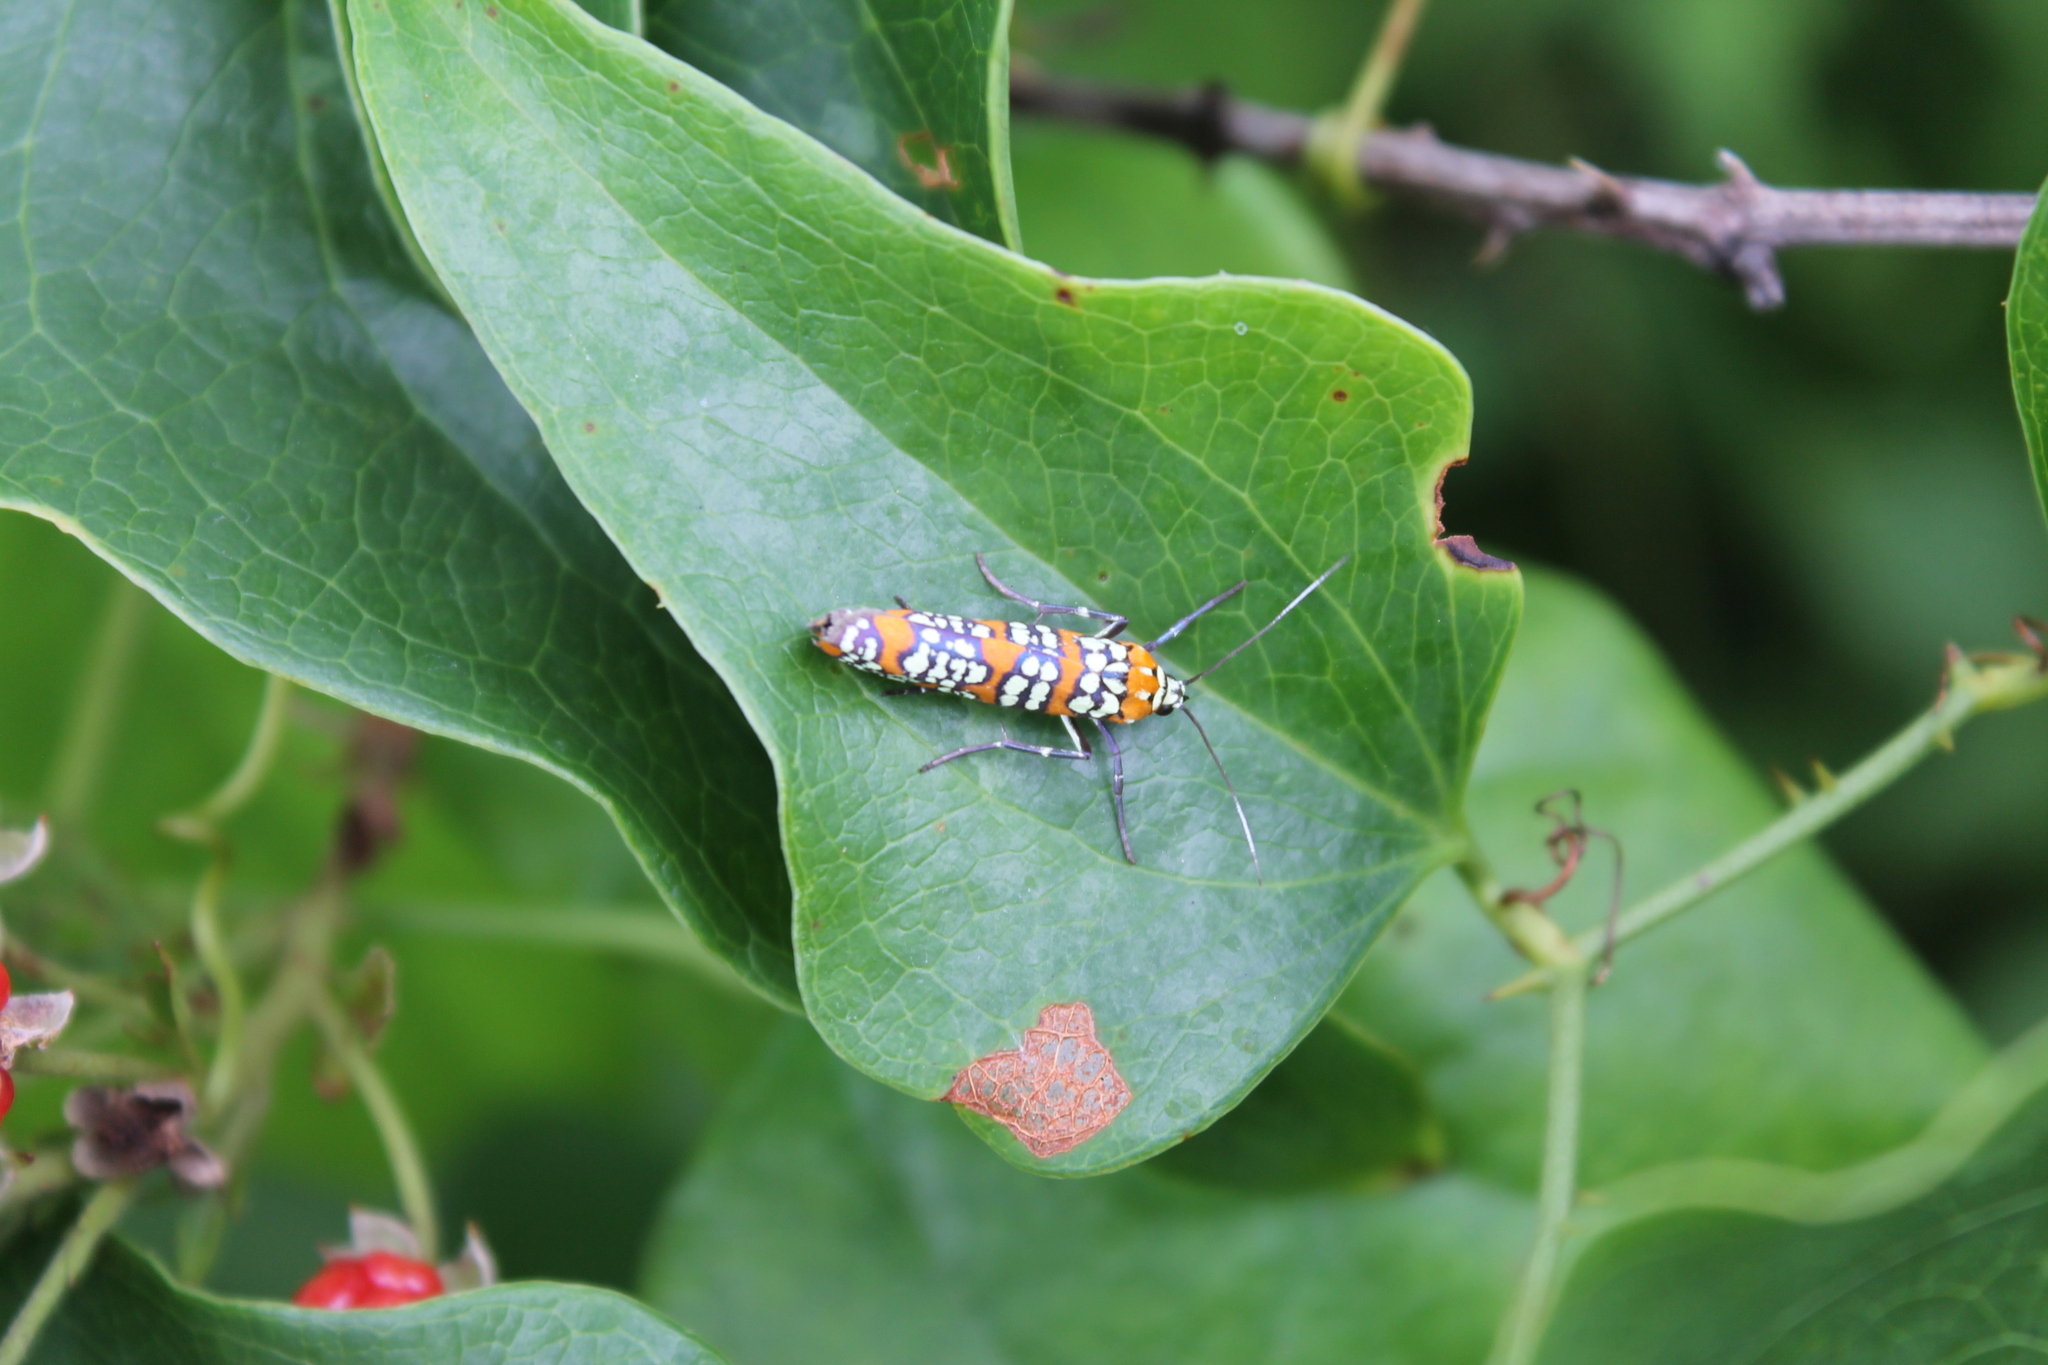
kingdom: Animalia
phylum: Arthropoda
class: Insecta
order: Lepidoptera
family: Attevidae
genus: Atteva
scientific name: Atteva punctella
